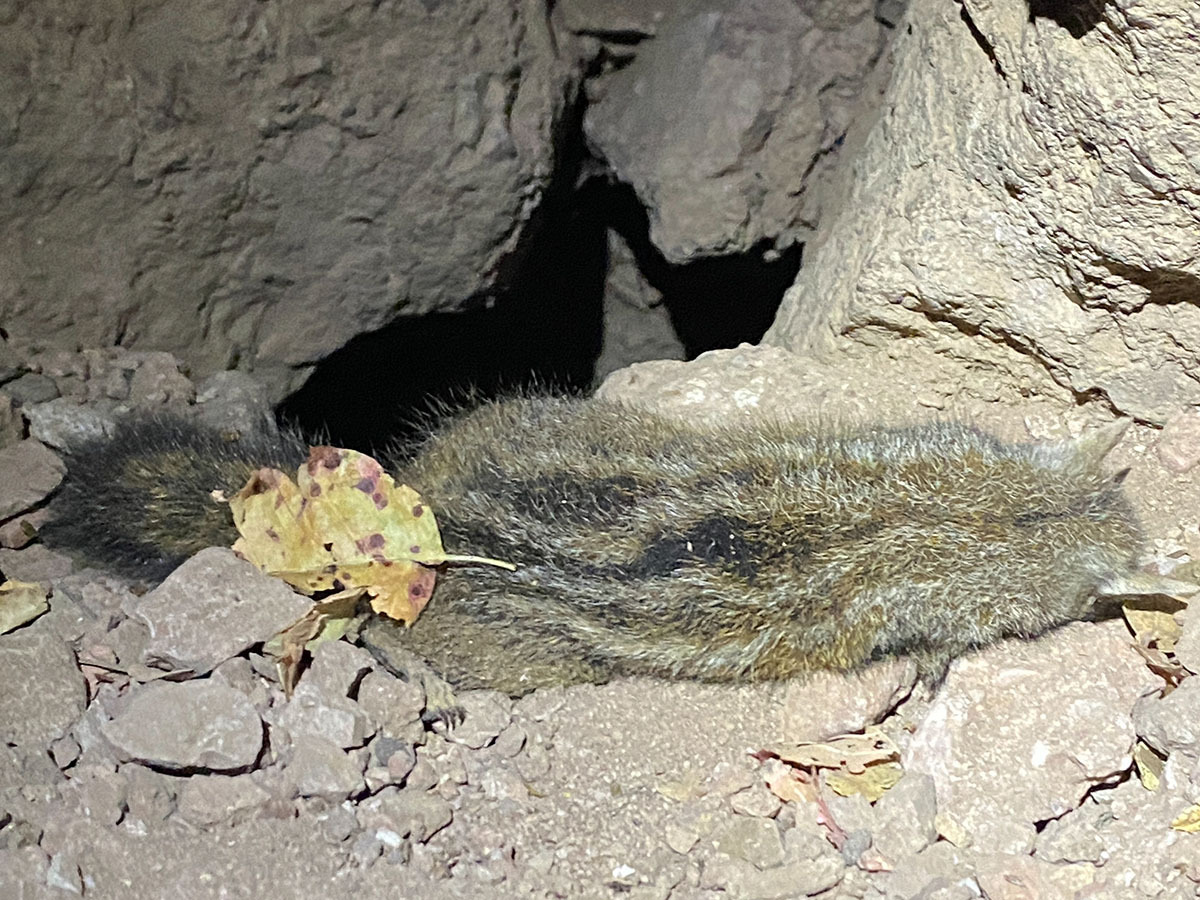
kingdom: Animalia
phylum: Chordata
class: Mammalia
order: Rodentia
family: Sciuridae
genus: Tamias
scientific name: Tamias merriami
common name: Merriam's chipmunk
